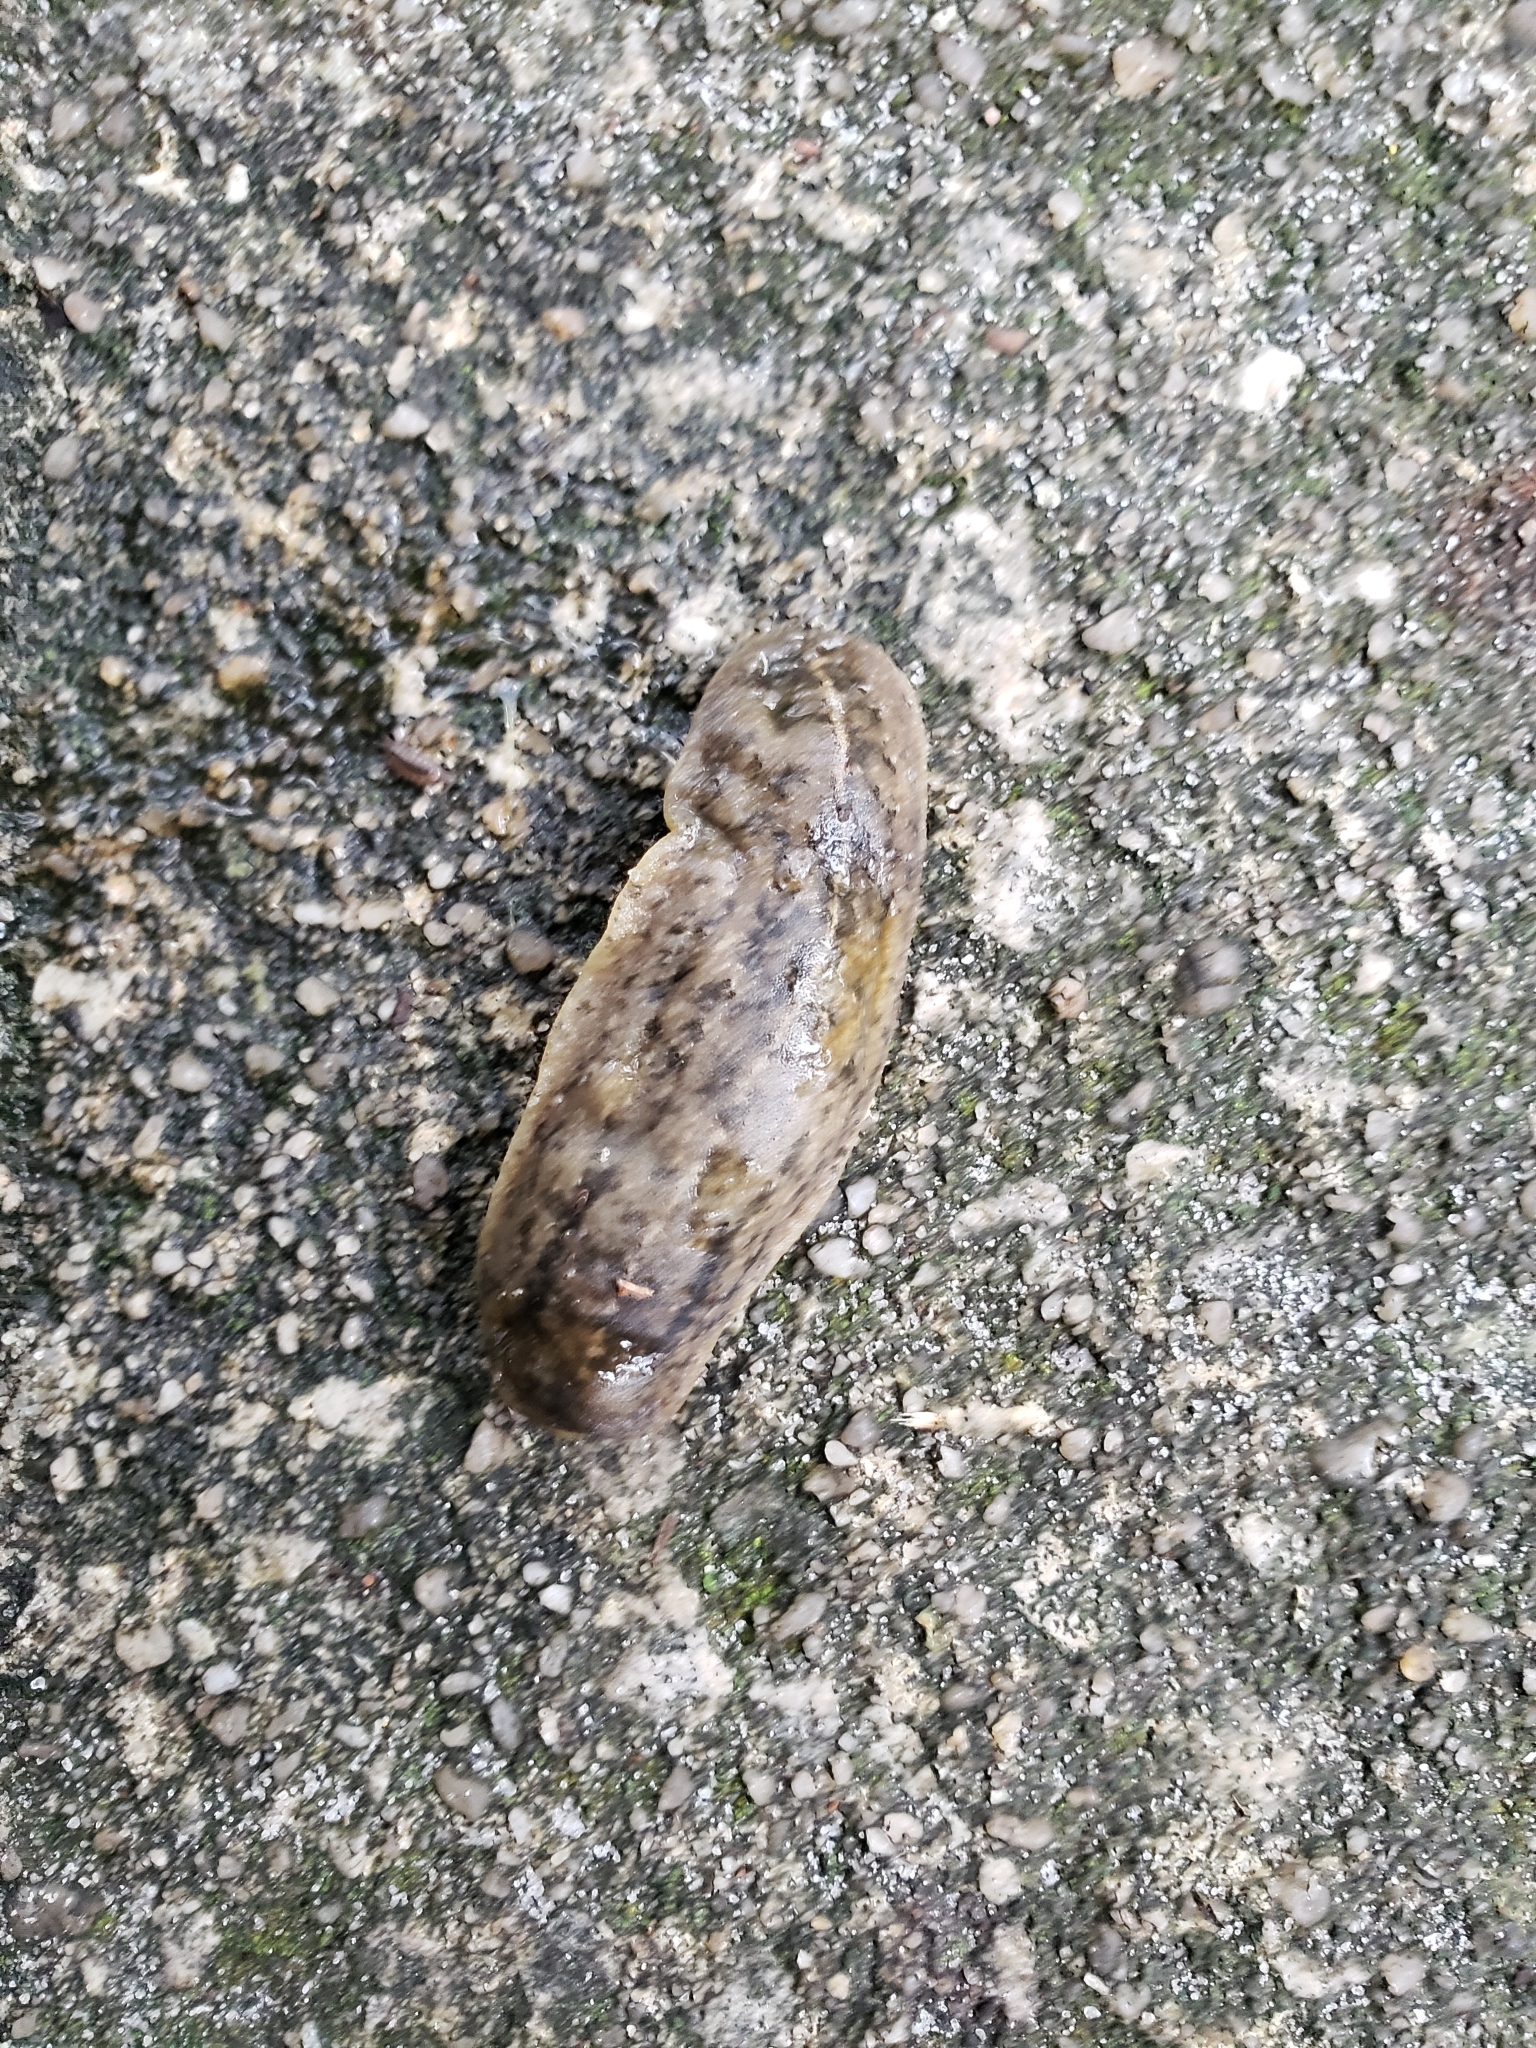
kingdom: Animalia
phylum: Mollusca
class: Gastropoda
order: Systellommatophora
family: Veronicellidae
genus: Leidyula
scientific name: Leidyula floridana
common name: Florida leatherleaf
